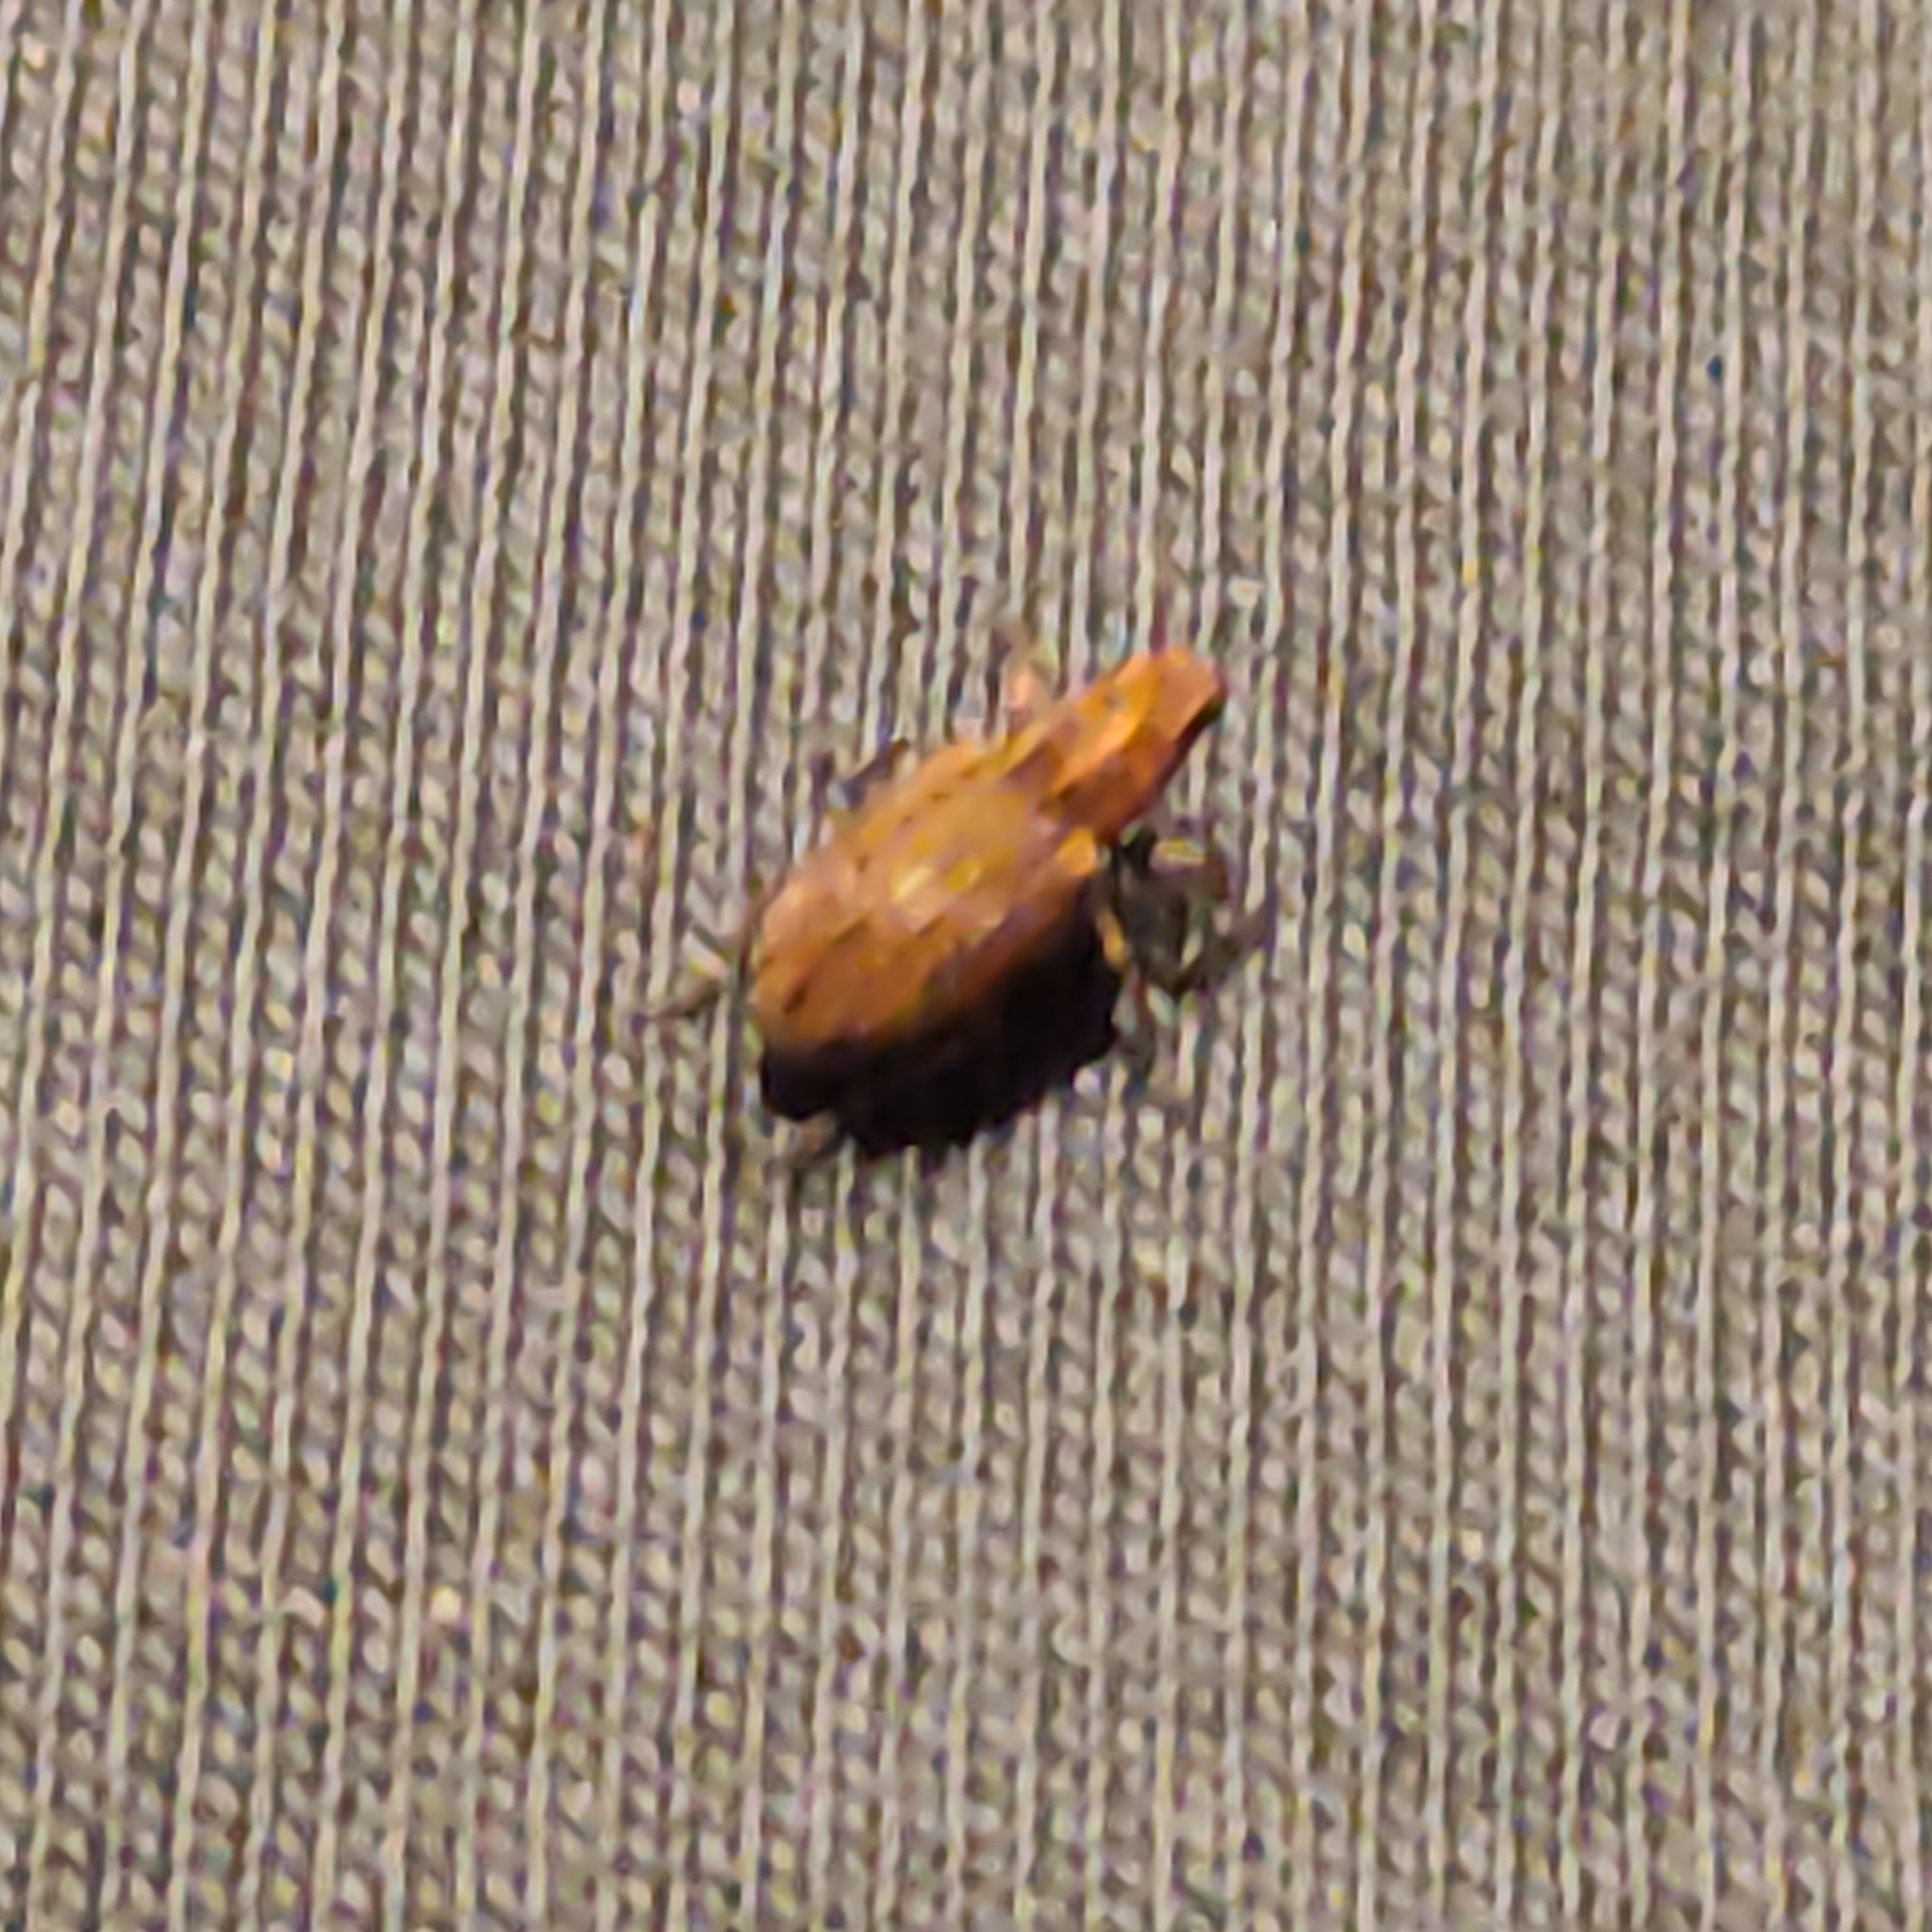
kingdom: Animalia
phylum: Arthropoda
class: Insecta
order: Coleoptera
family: Curculionidae
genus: Sitona
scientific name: Sitona obsoletus
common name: Weevil
